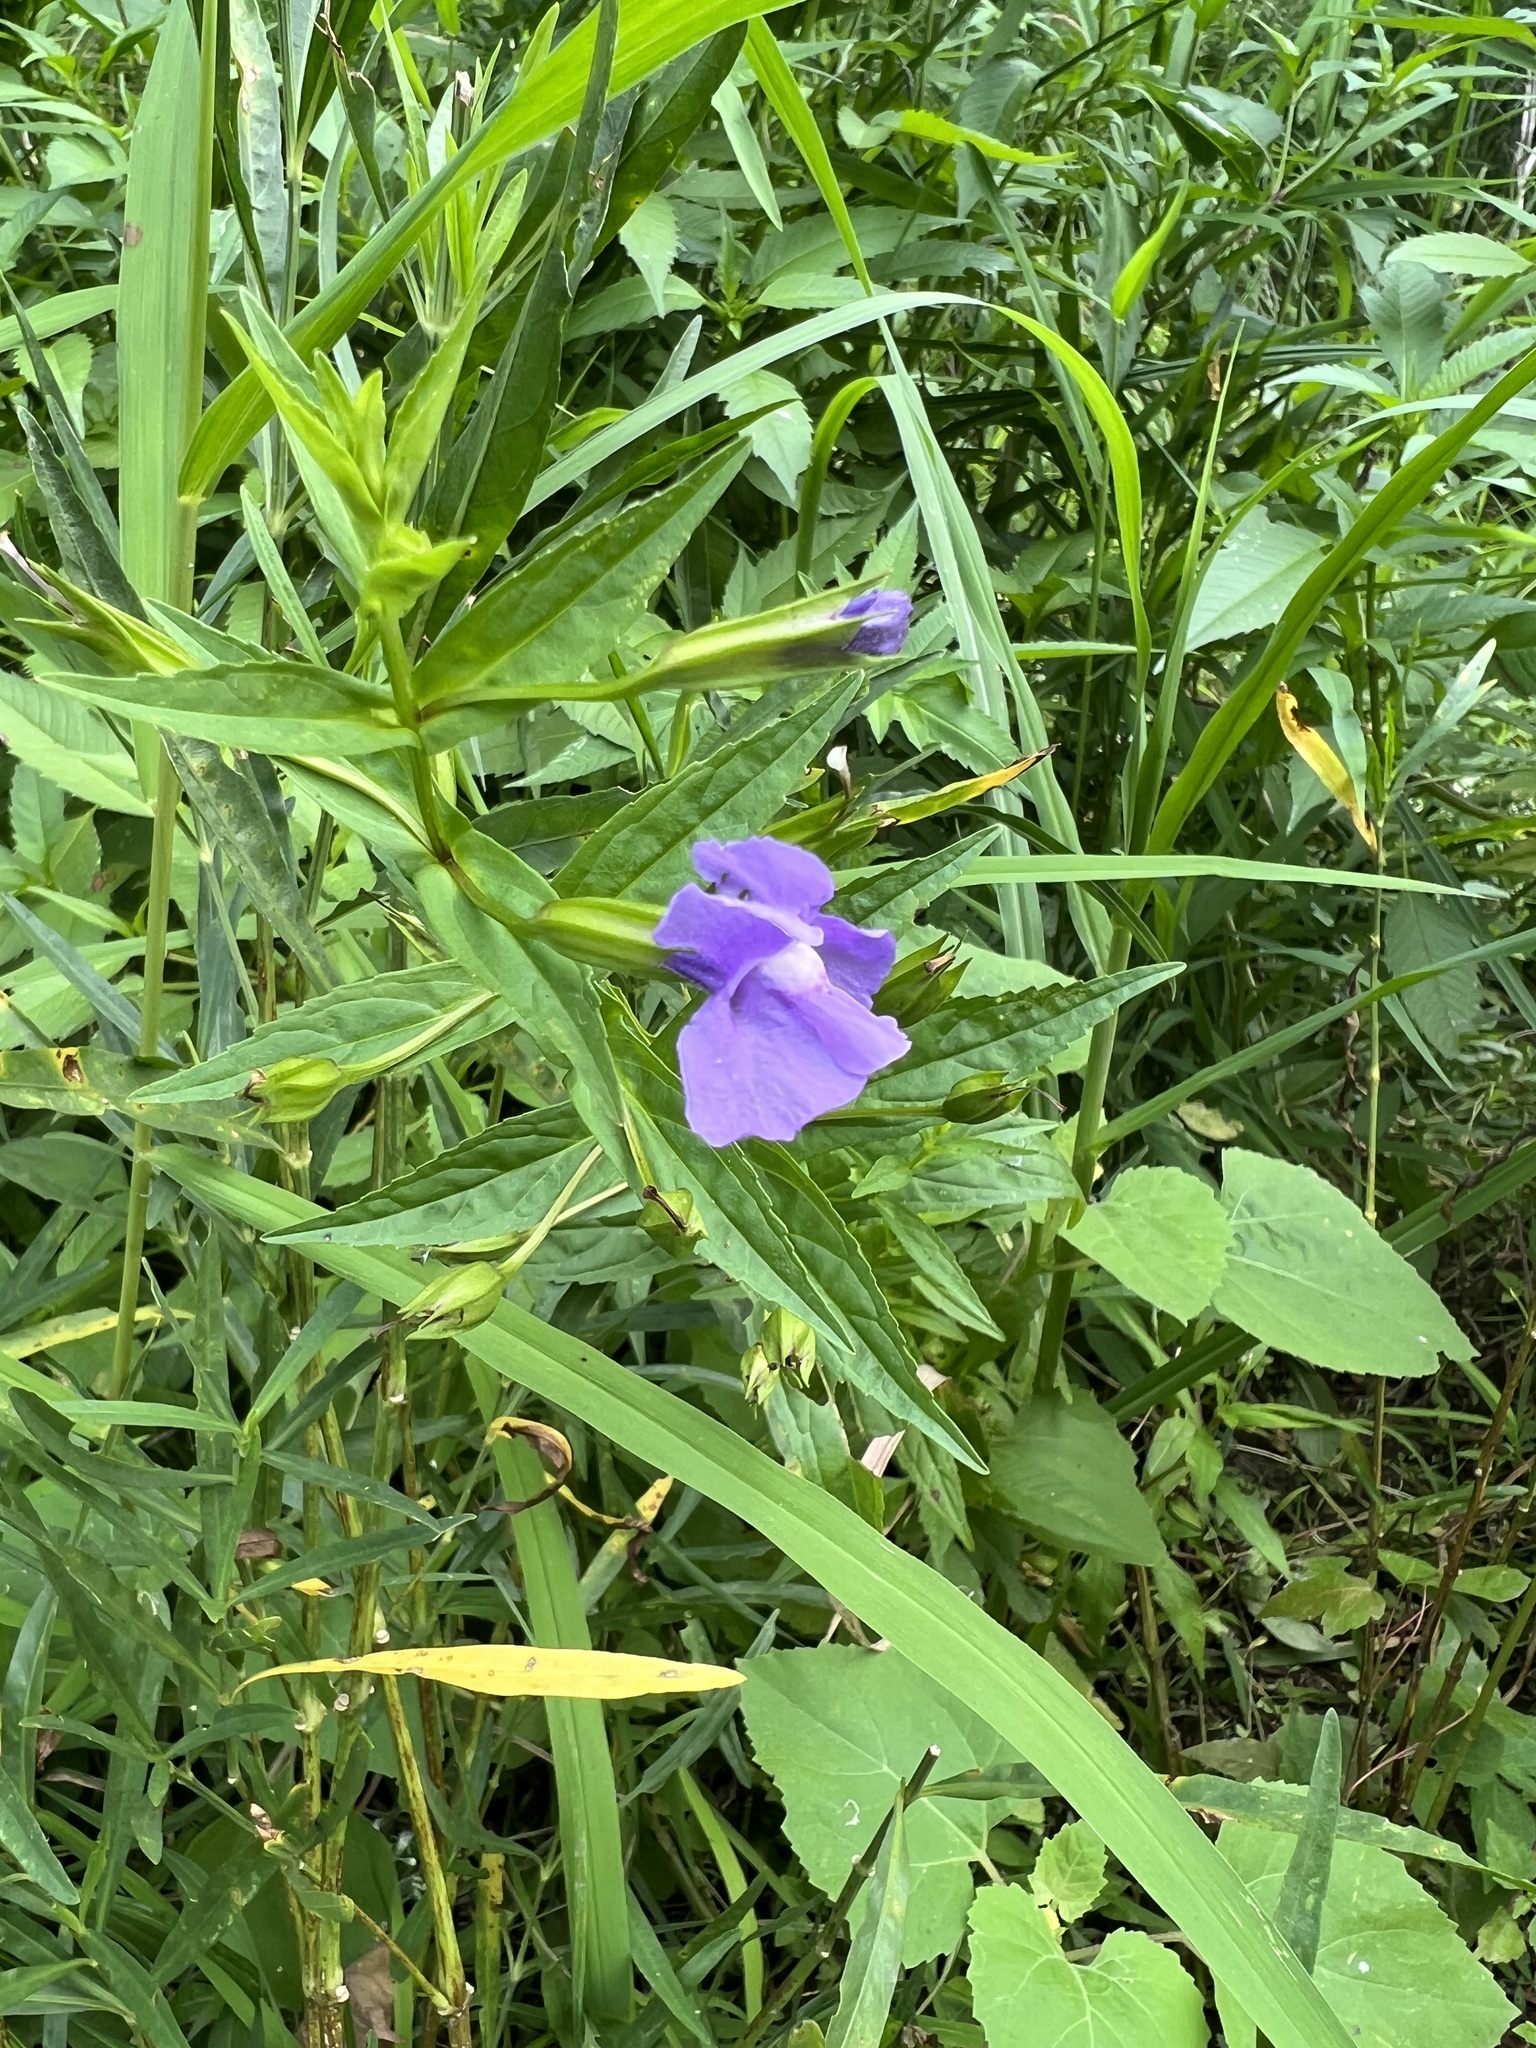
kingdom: Plantae
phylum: Tracheophyta
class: Magnoliopsida
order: Lamiales
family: Phrymaceae
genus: Mimulus
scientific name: Mimulus ringens
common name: Allegheny monkeyflower
